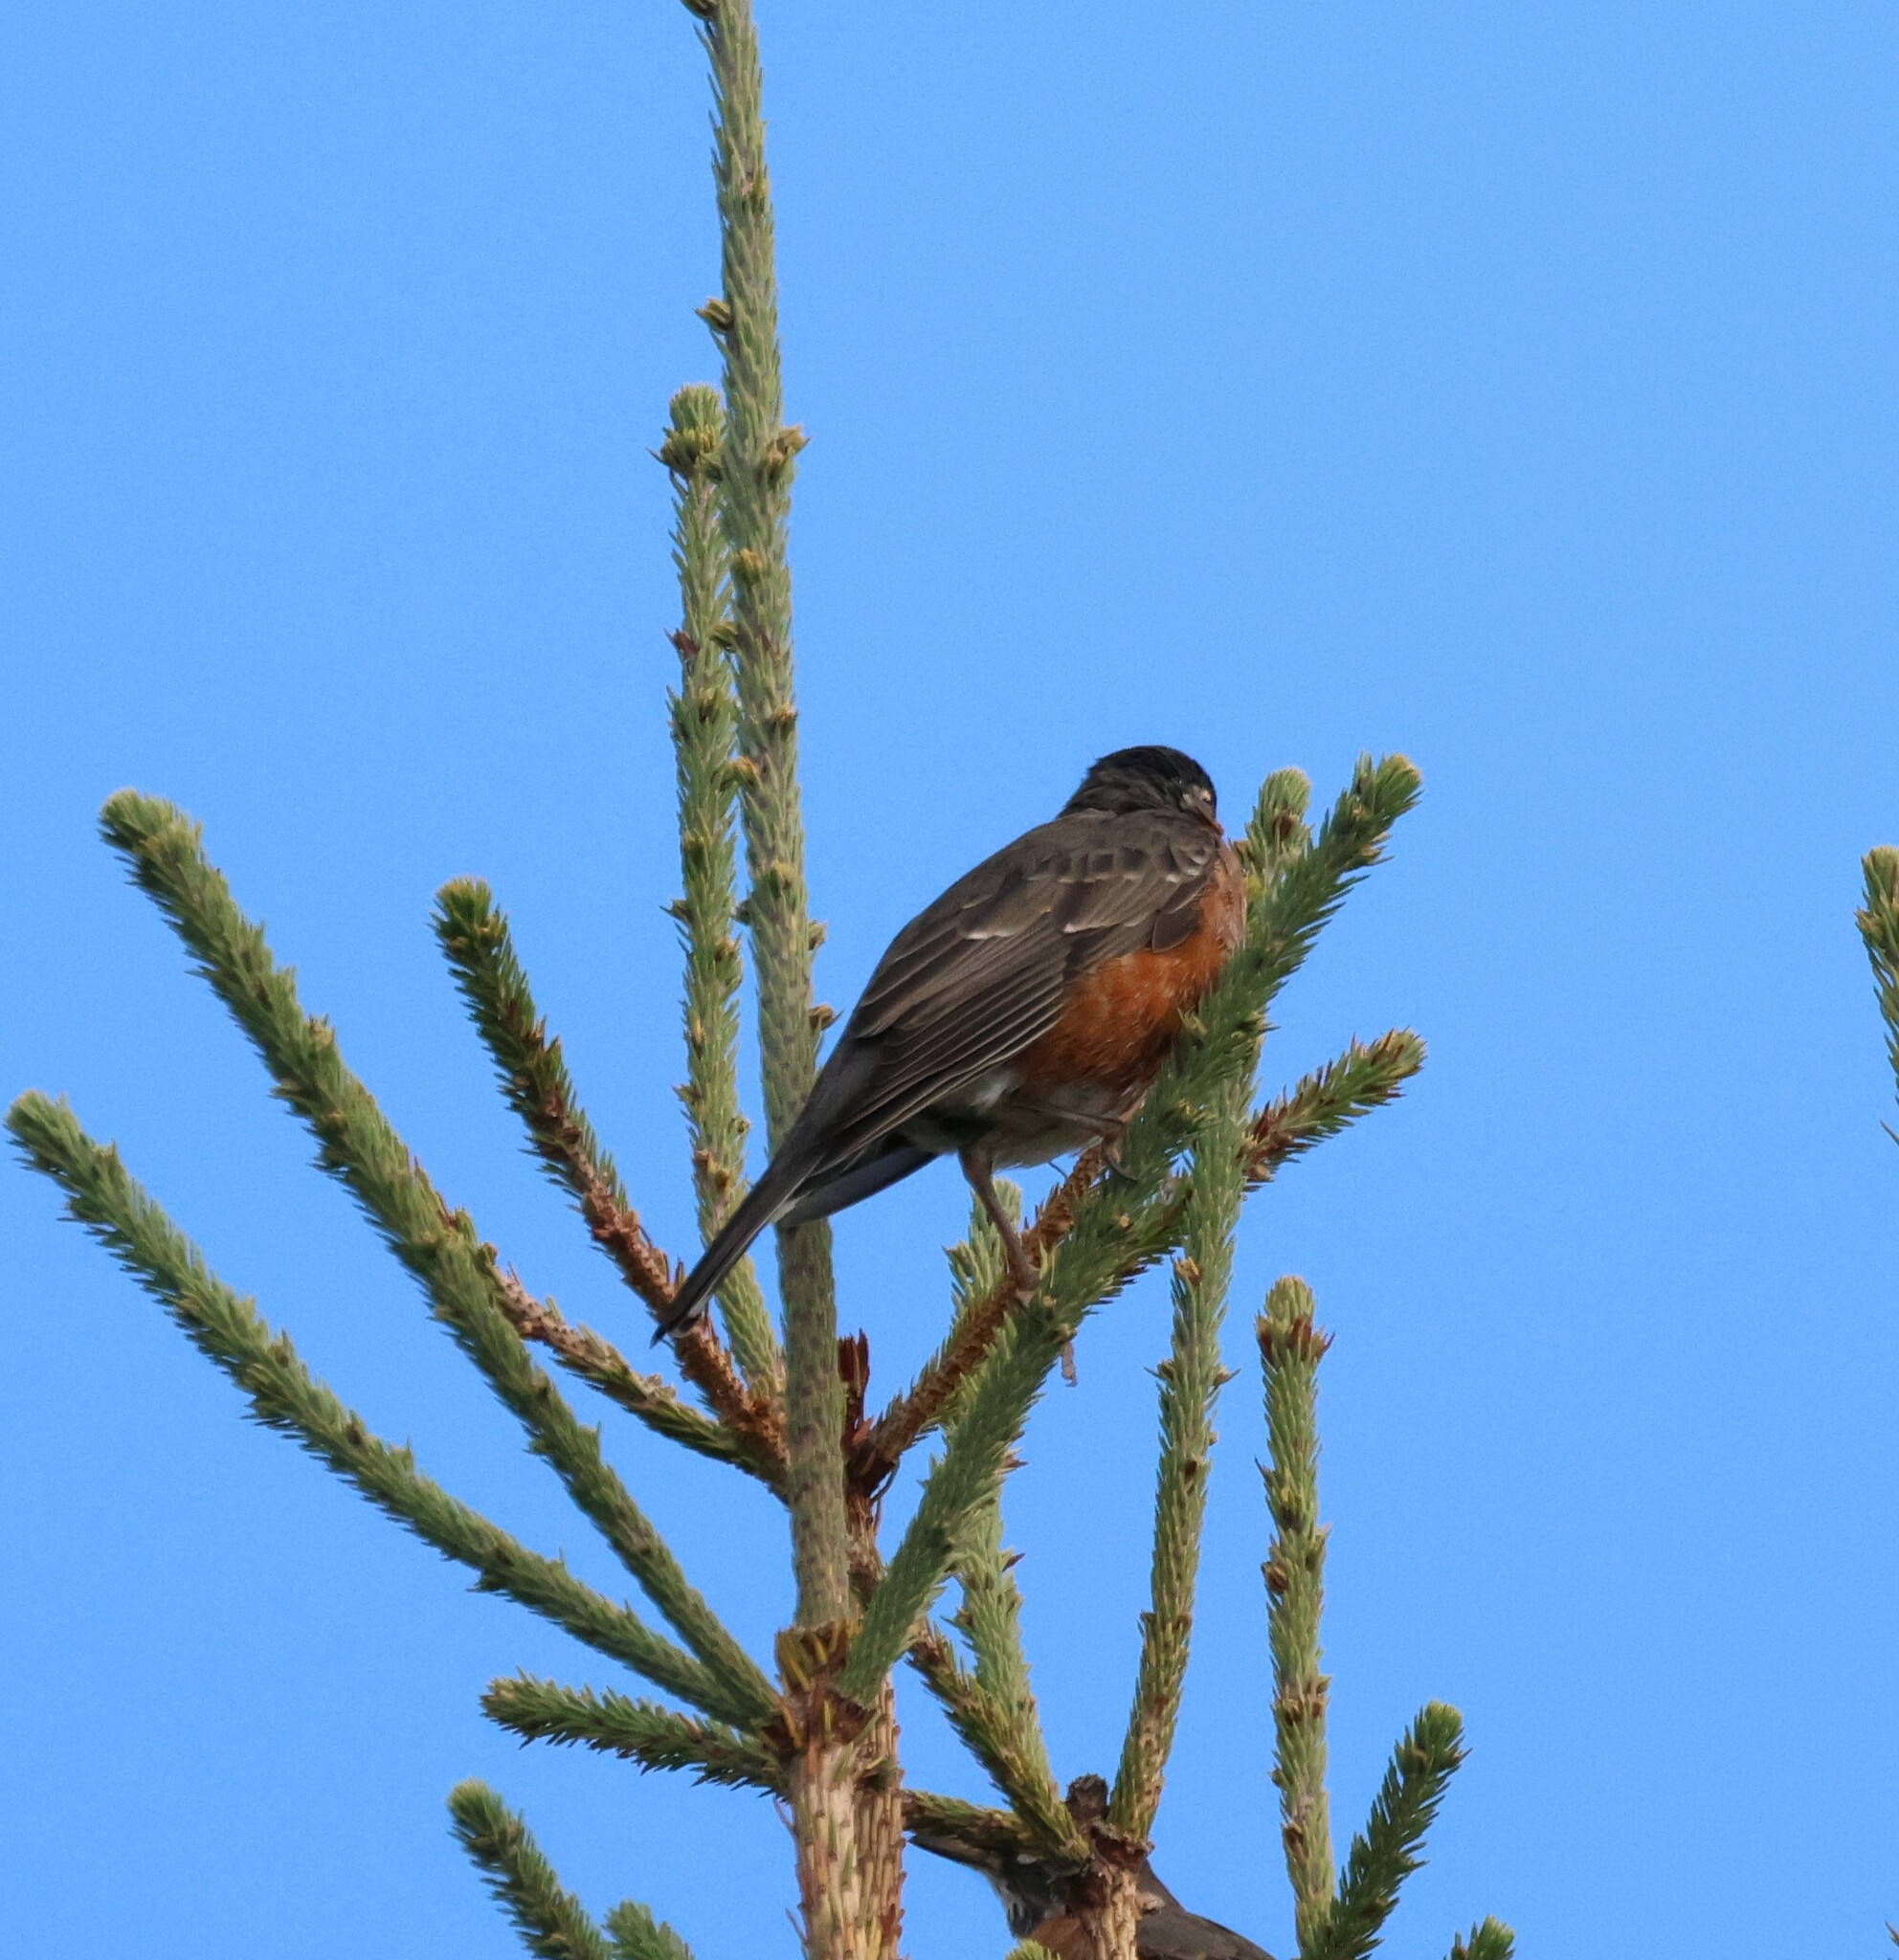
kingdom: Animalia
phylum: Chordata
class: Aves
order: Passeriformes
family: Turdidae
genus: Turdus
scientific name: Turdus migratorius
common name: American robin
